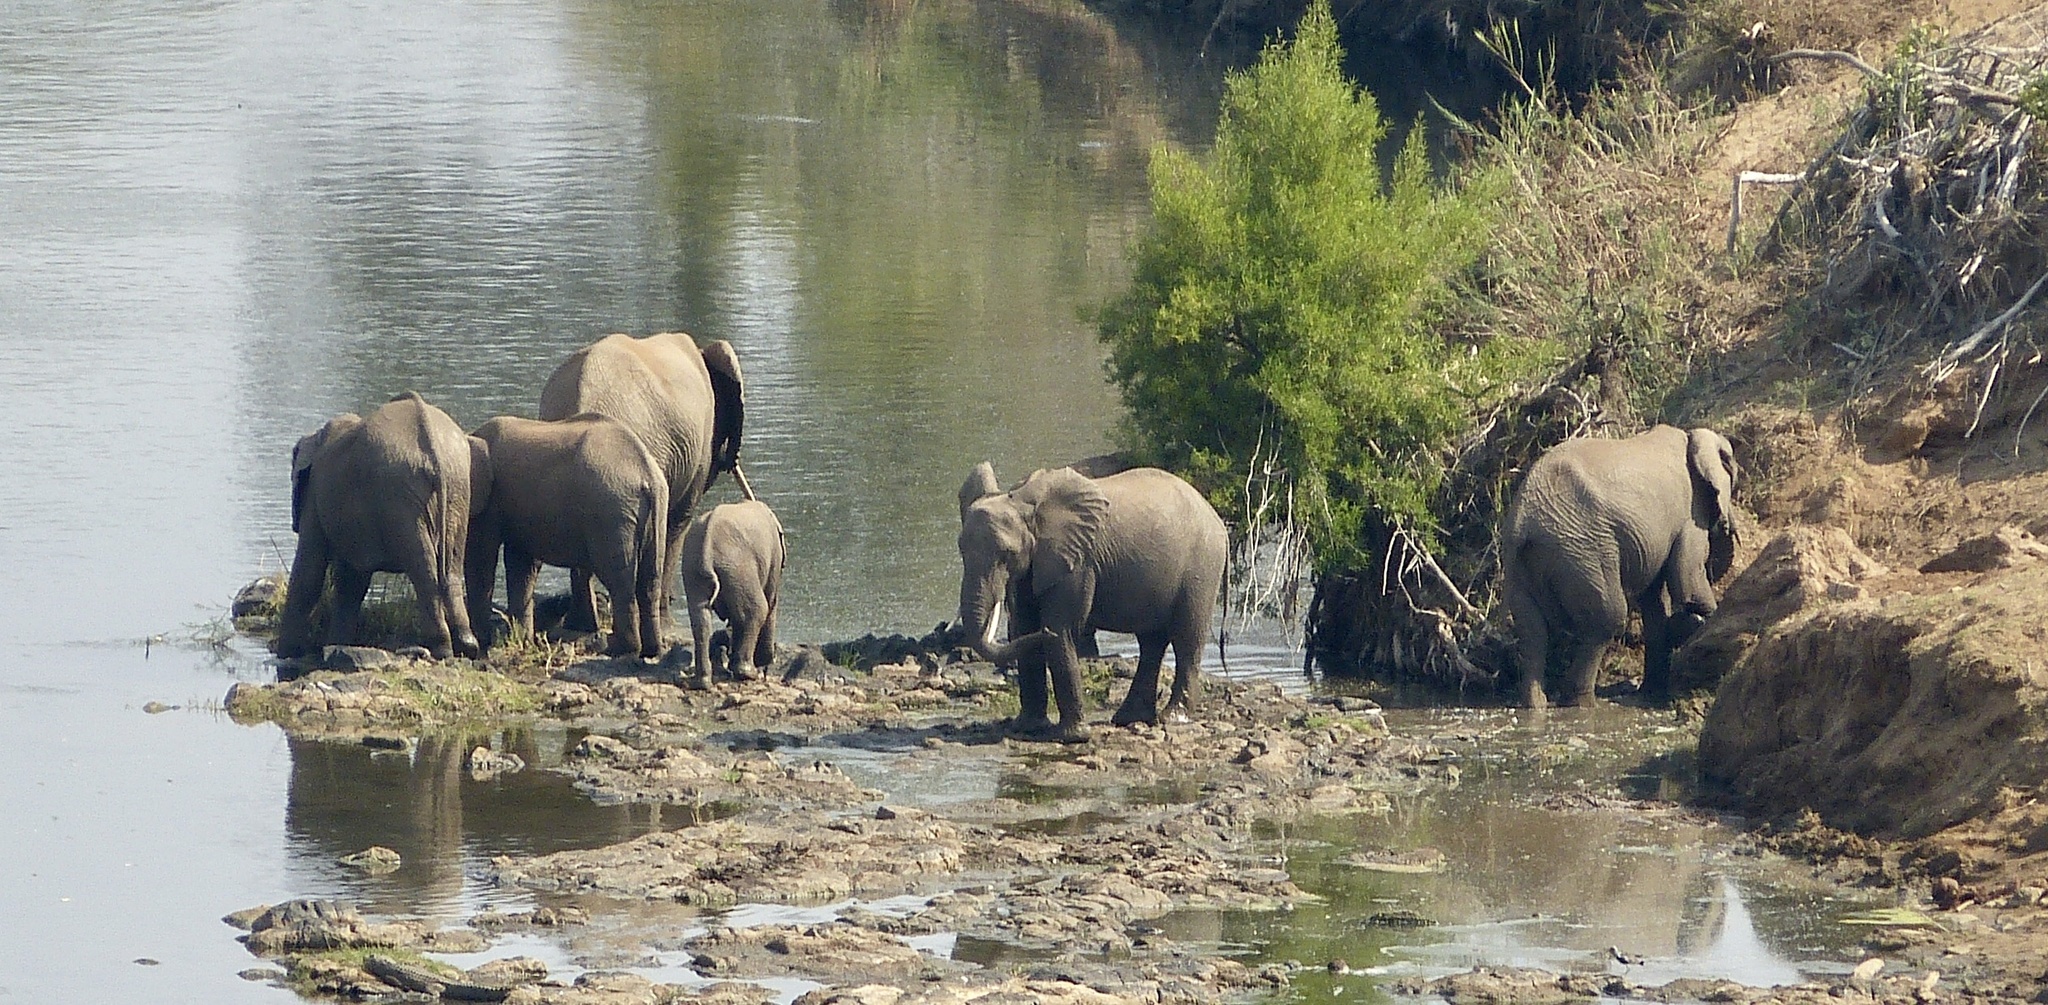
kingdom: Animalia
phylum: Chordata
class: Mammalia
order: Proboscidea
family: Elephantidae
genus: Loxodonta
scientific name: Loxodonta africana
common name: African elephant
